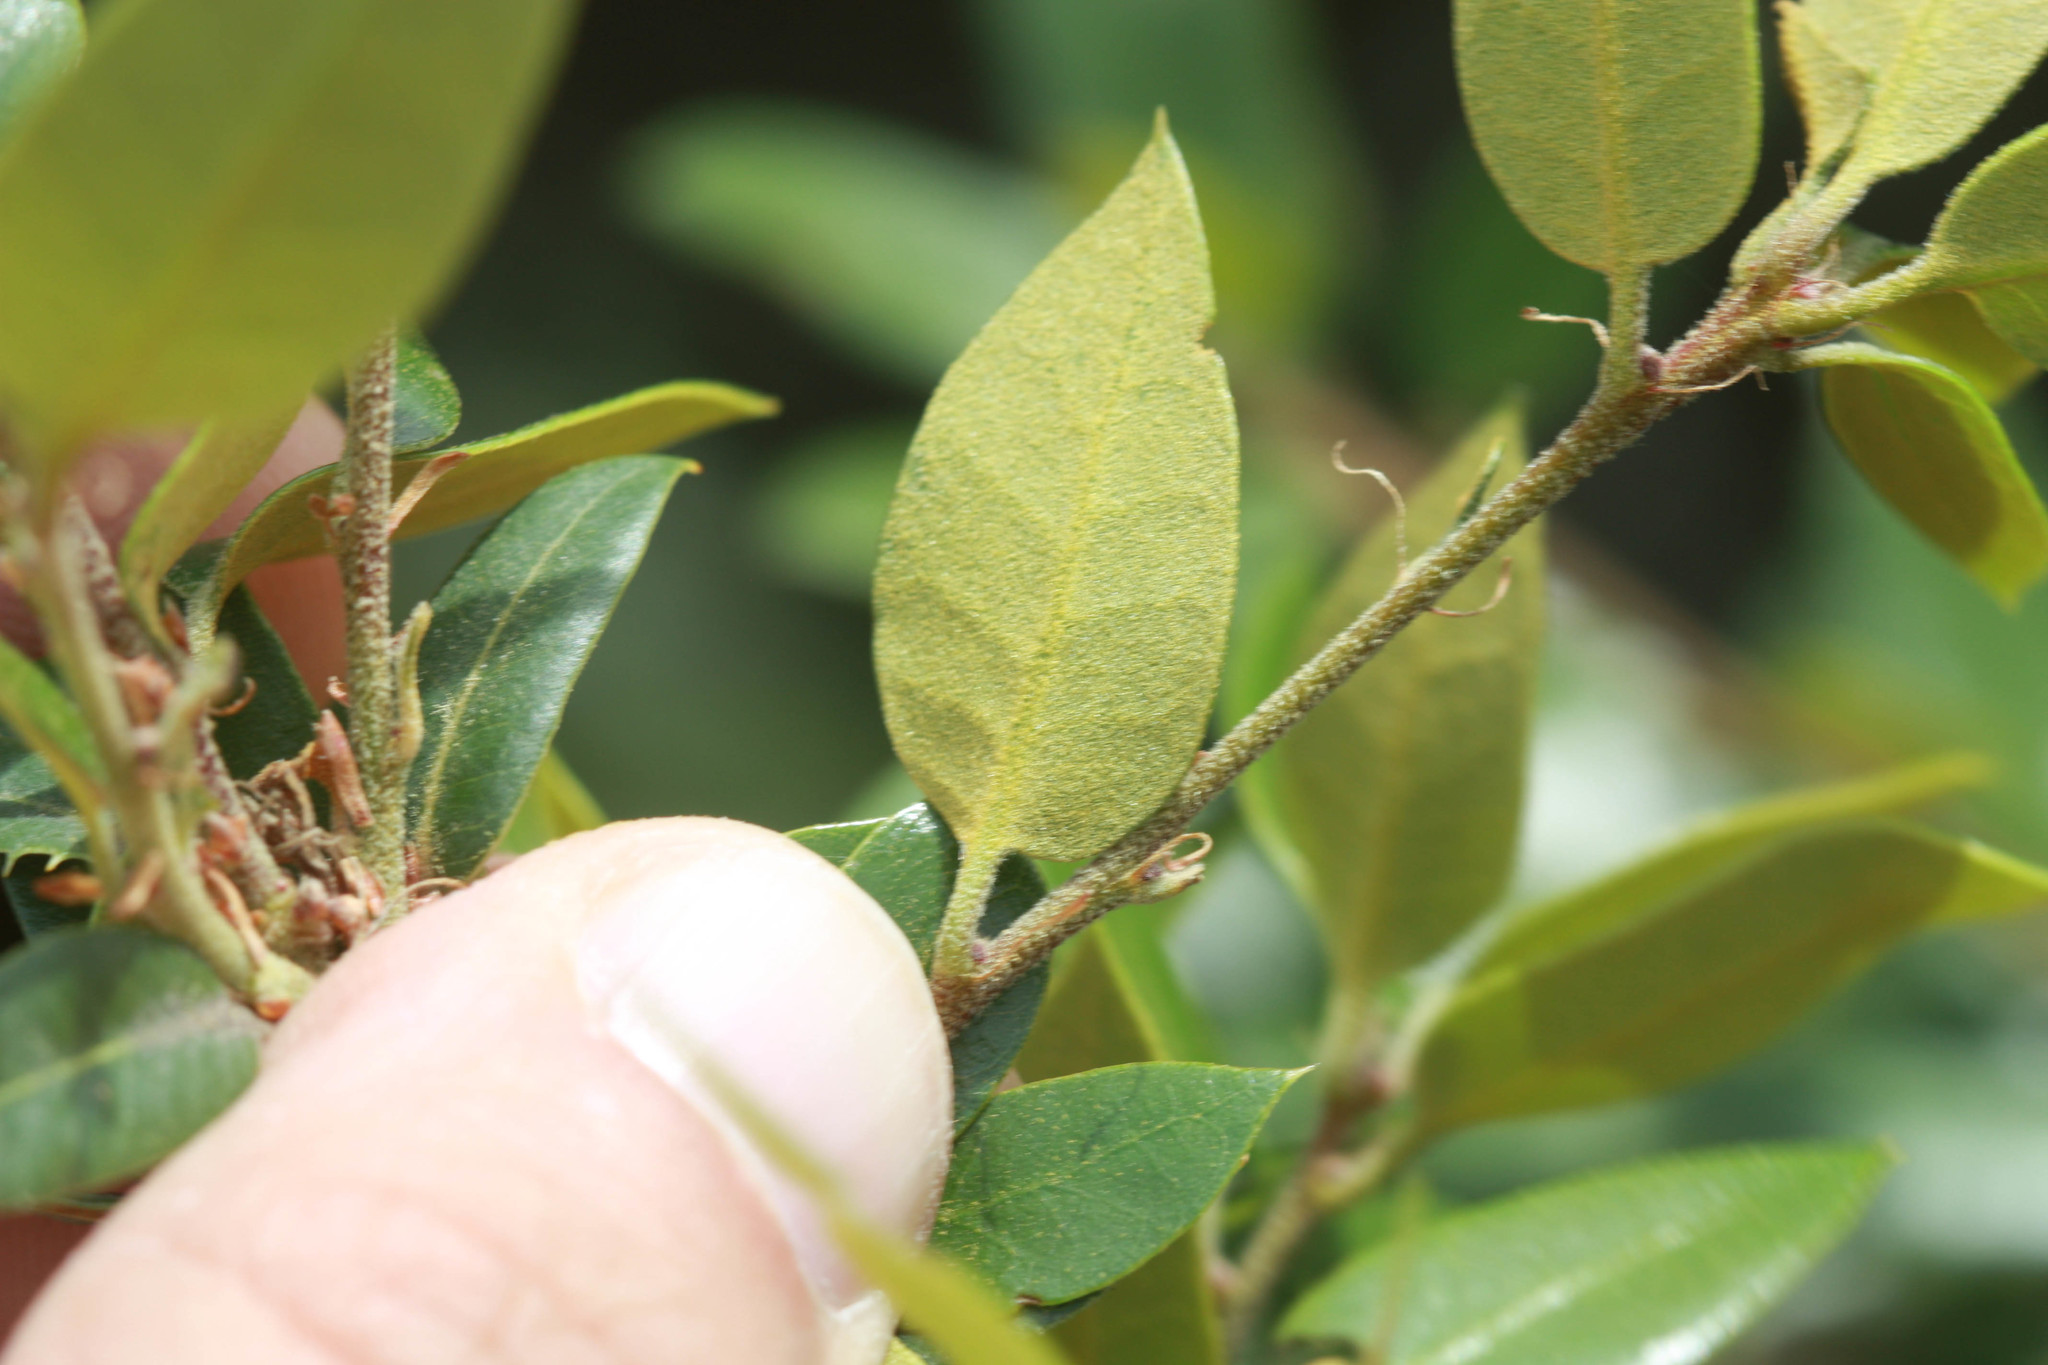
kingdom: Plantae
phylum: Tracheophyta
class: Magnoliopsida
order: Fagales
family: Fagaceae
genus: Quercus
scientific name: Quercus chrysolepis
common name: Canyon live oak
